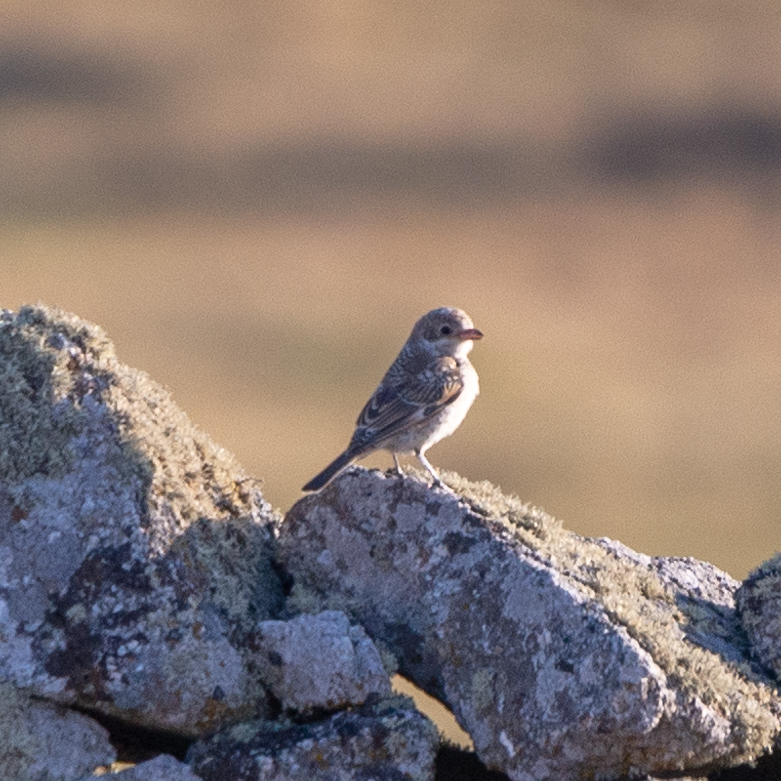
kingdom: Animalia
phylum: Chordata
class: Aves
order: Passeriformes
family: Laniidae
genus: Lanius
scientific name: Lanius senator
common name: Woodchat shrike
